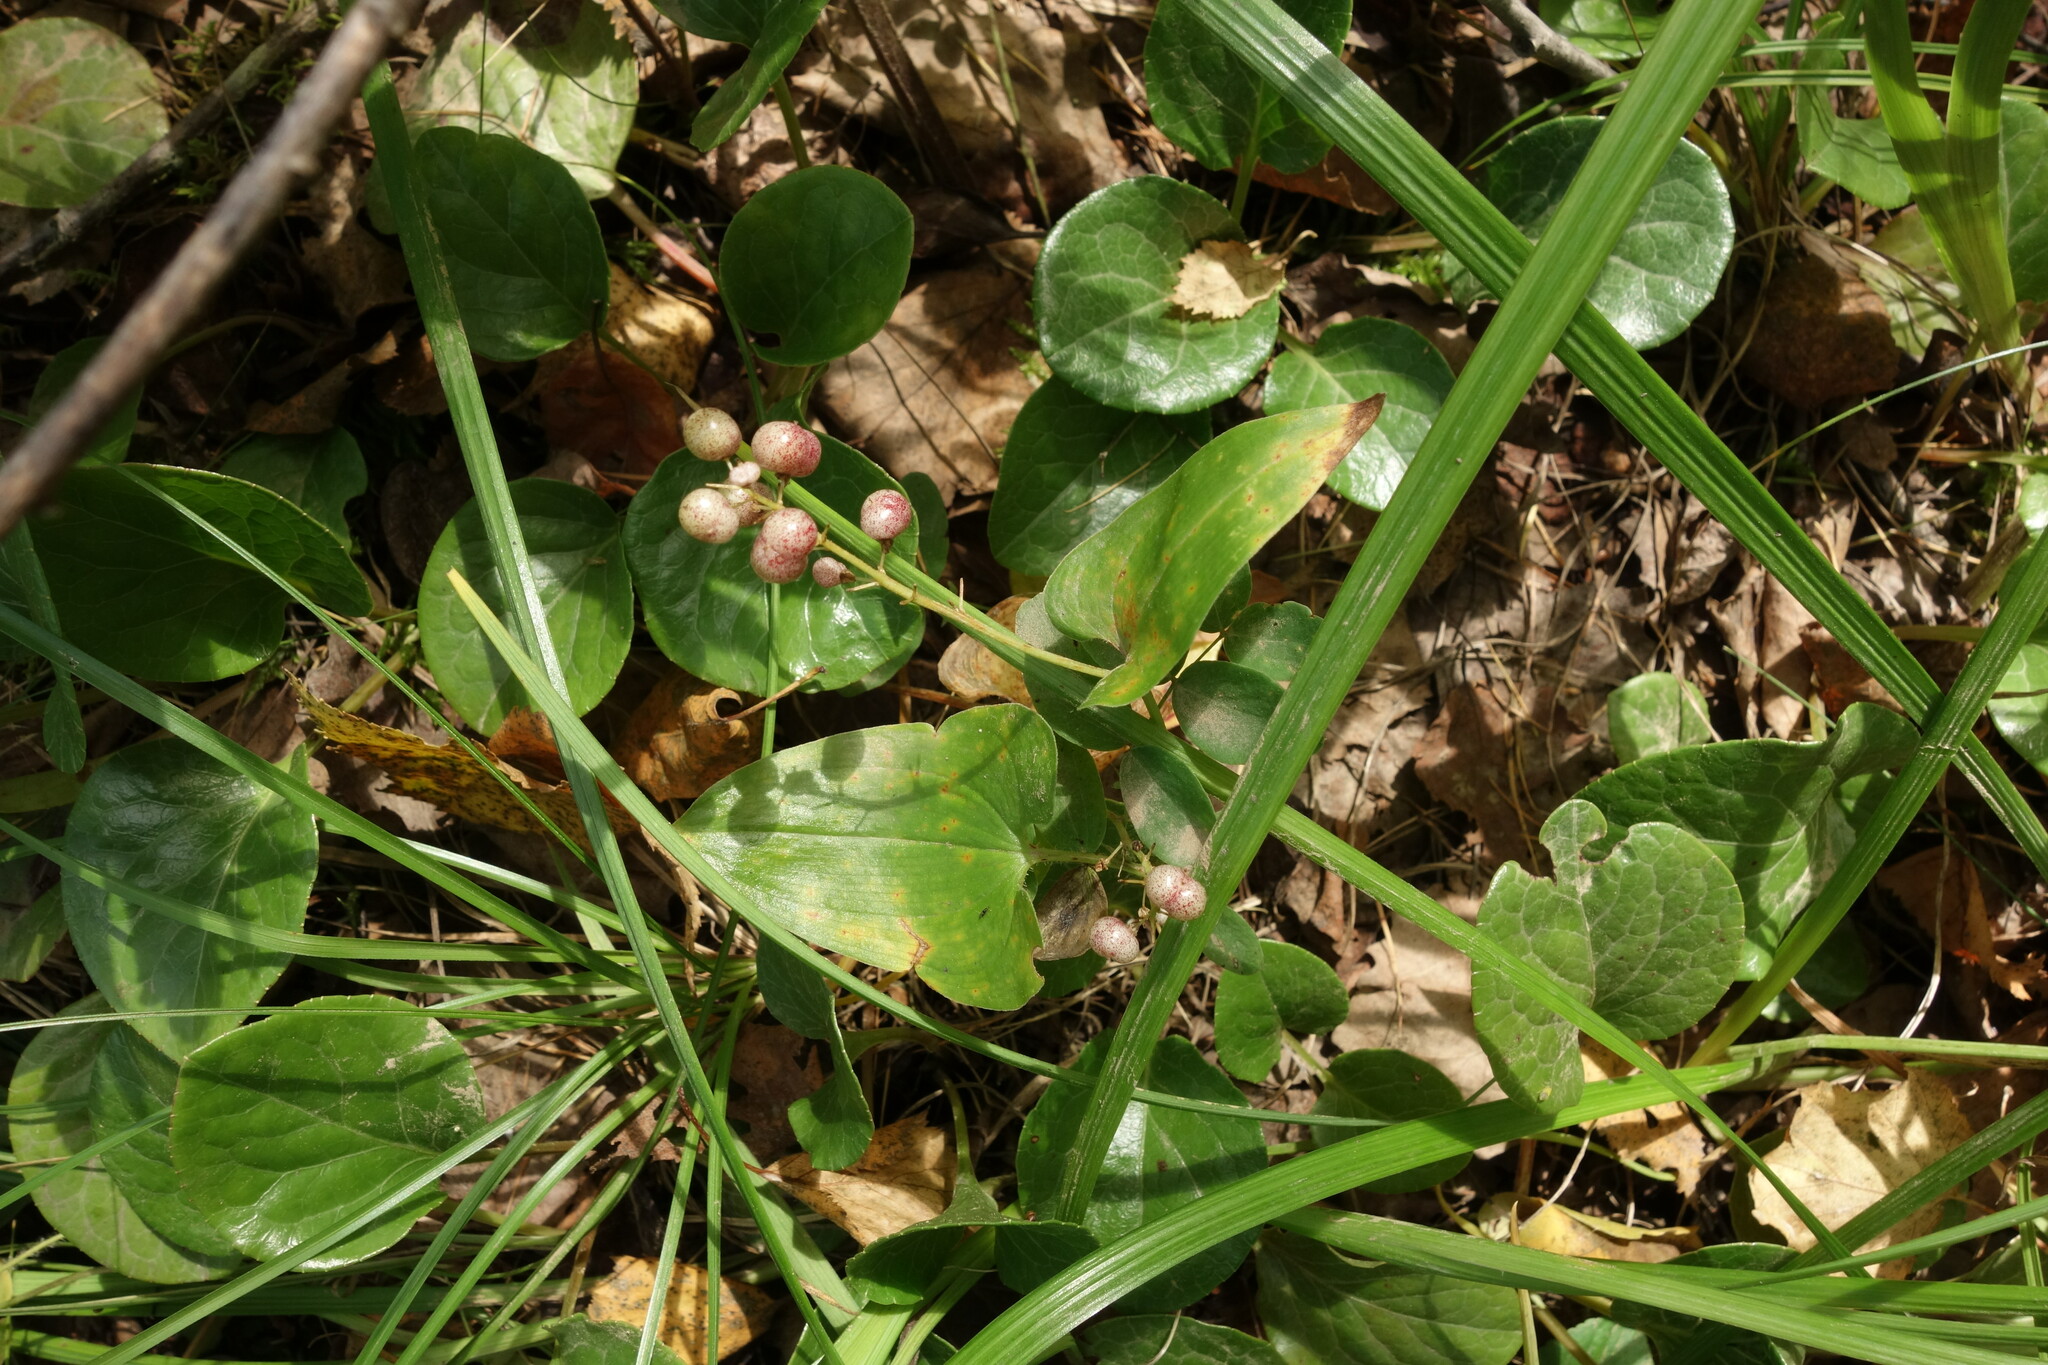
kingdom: Plantae
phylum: Tracheophyta
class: Liliopsida
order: Asparagales
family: Asparagaceae
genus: Maianthemum
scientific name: Maianthemum bifolium
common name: May lily
